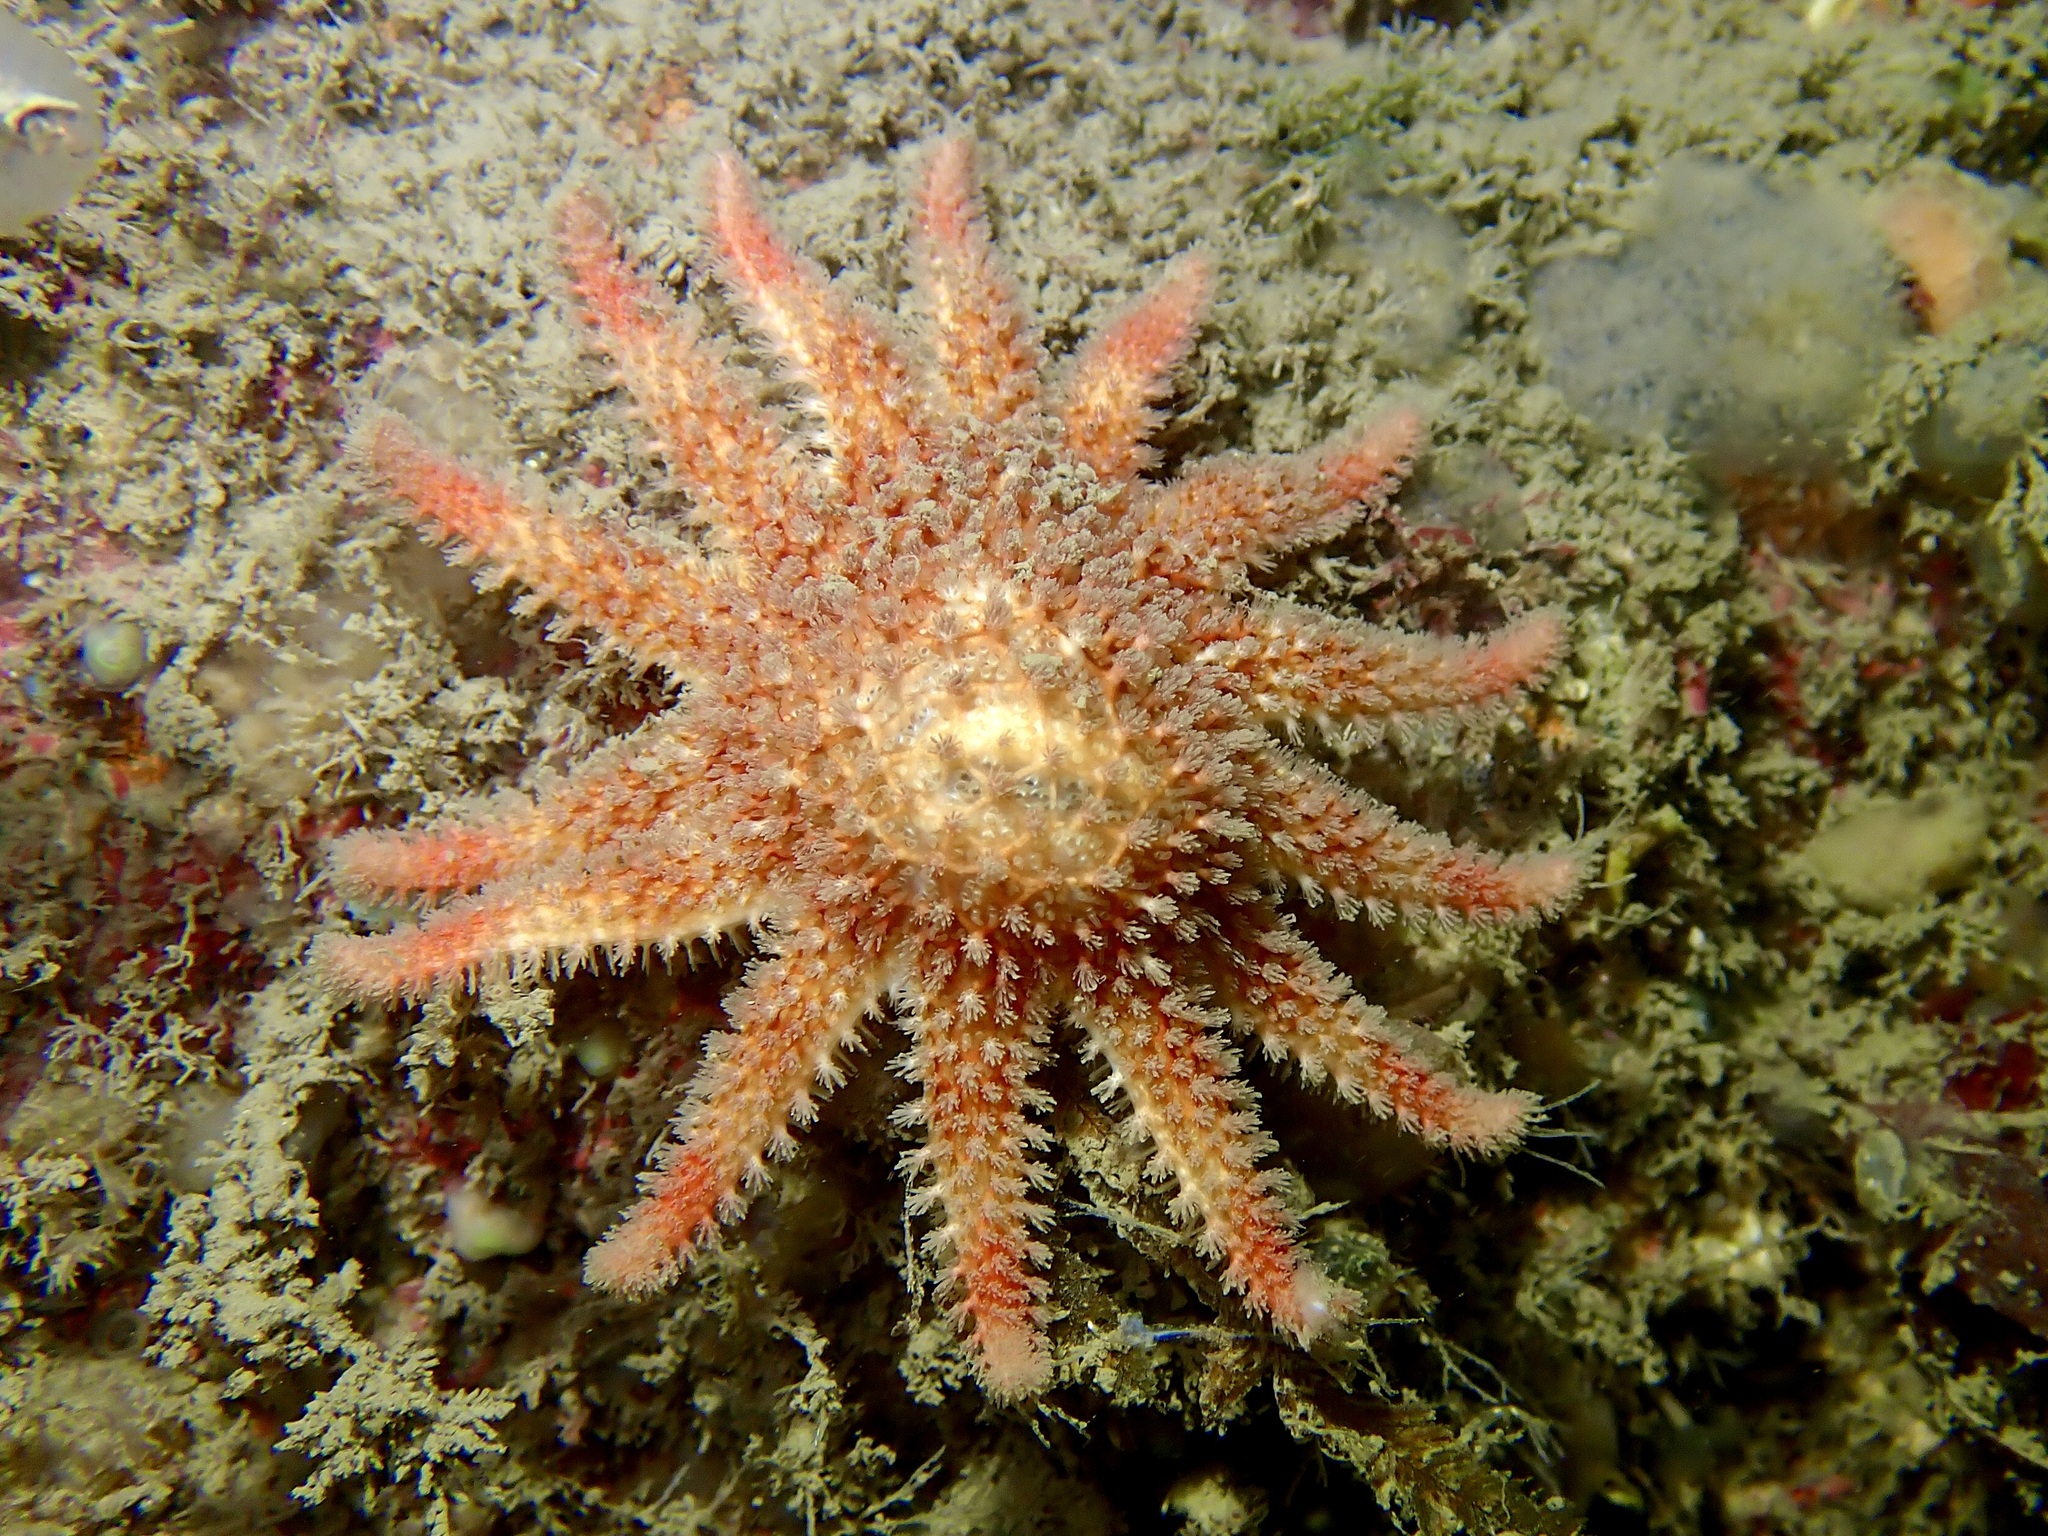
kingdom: Animalia
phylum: Echinodermata
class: Asteroidea
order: Valvatida
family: Solasteridae
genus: Crossaster
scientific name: Crossaster papposus
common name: Common sun star
